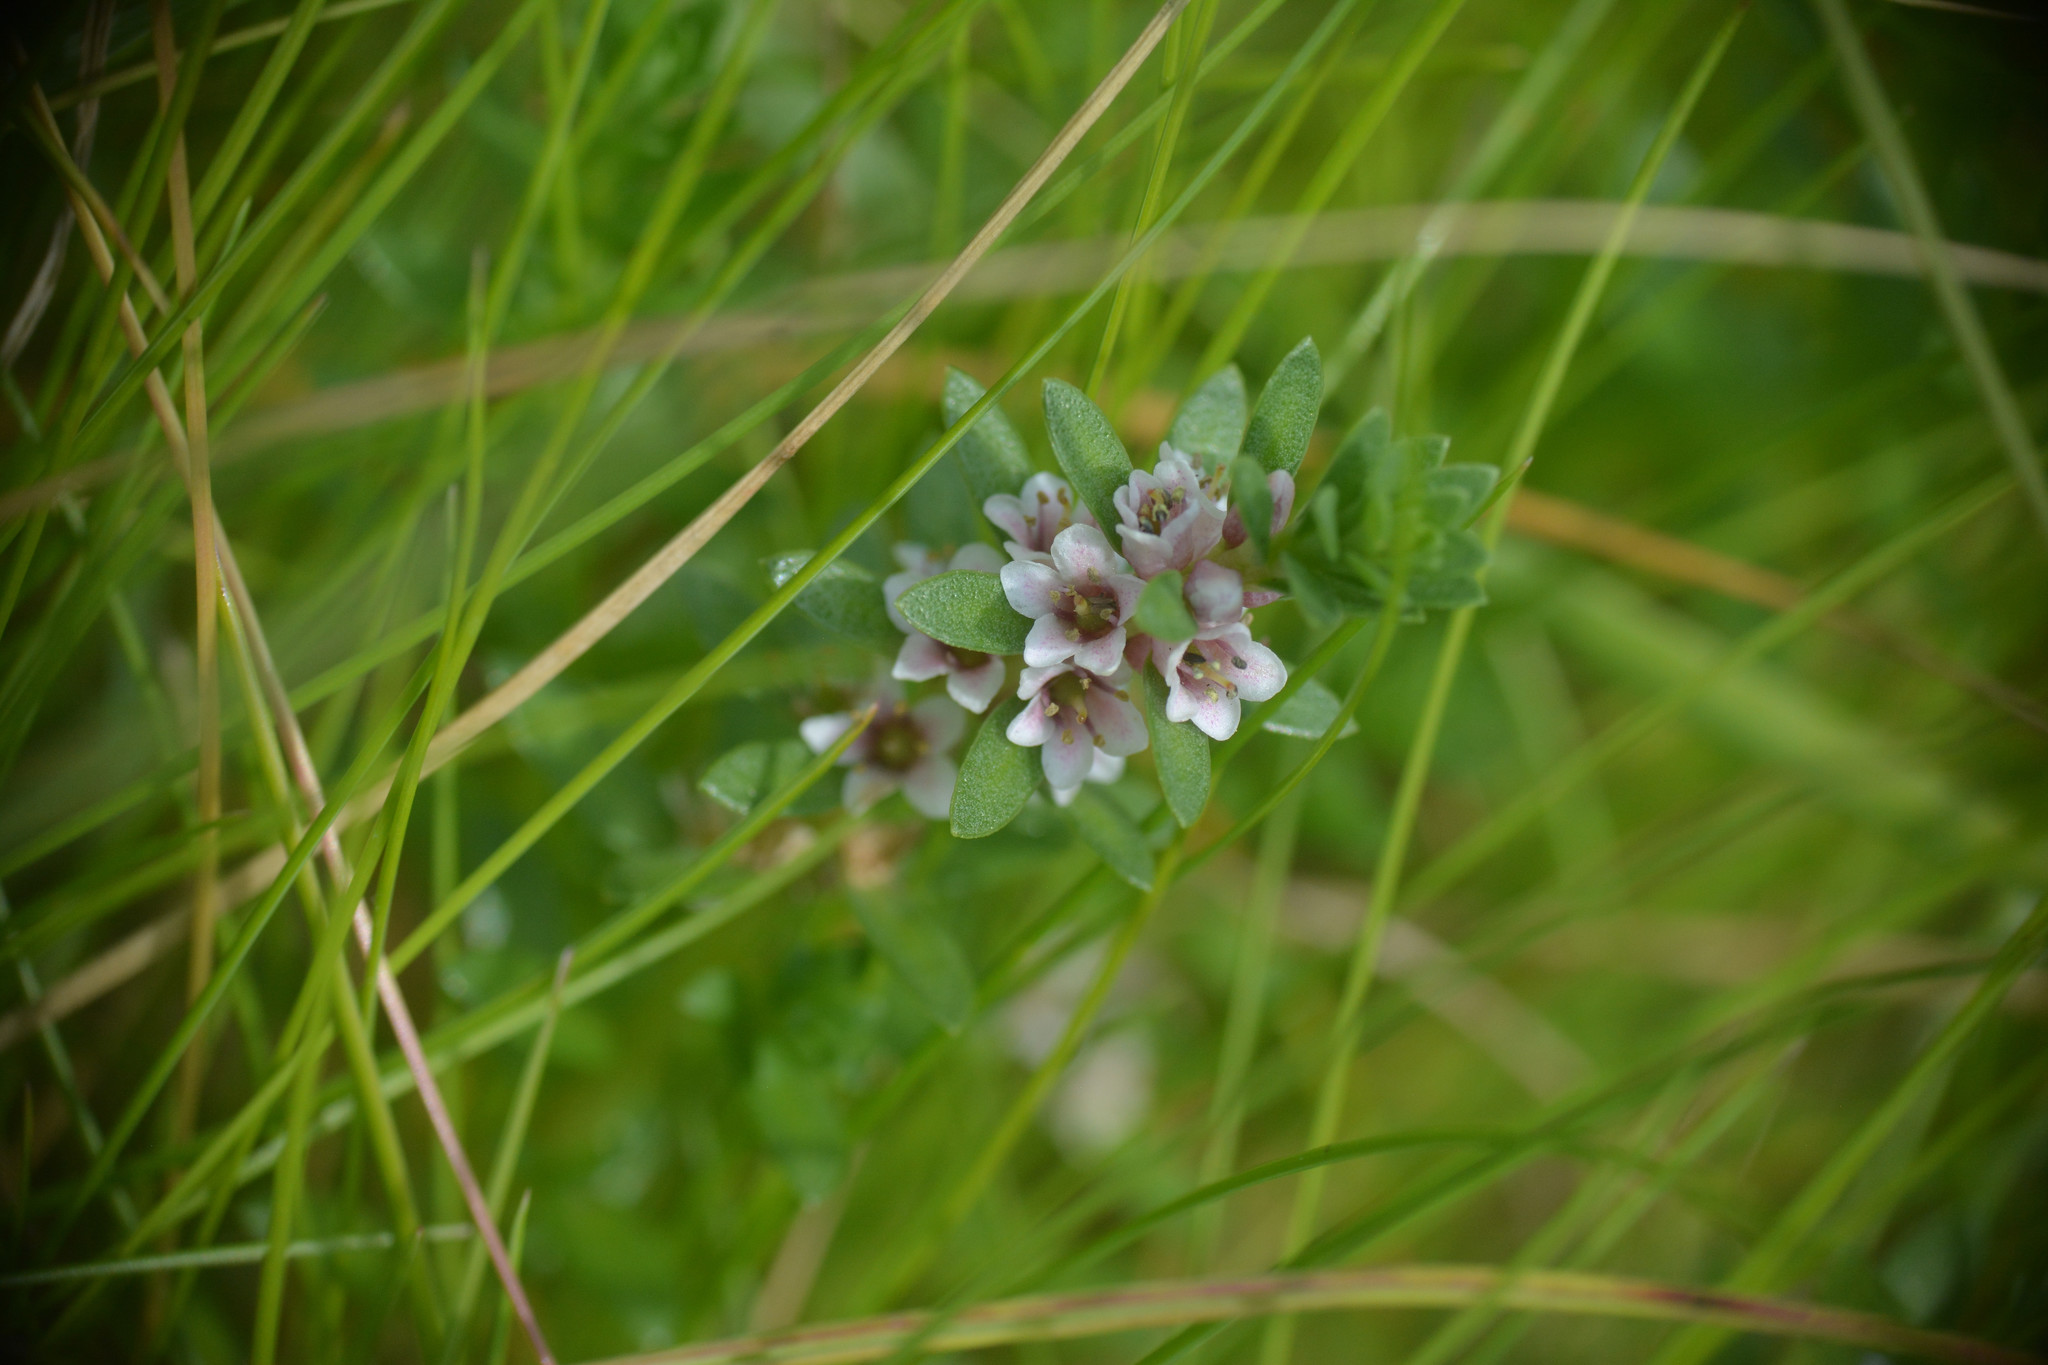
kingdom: Plantae
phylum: Tracheophyta
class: Magnoliopsida
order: Ericales
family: Primulaceae
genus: Lysimachia
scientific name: Lysimachia maritima
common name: Sea milkwort
